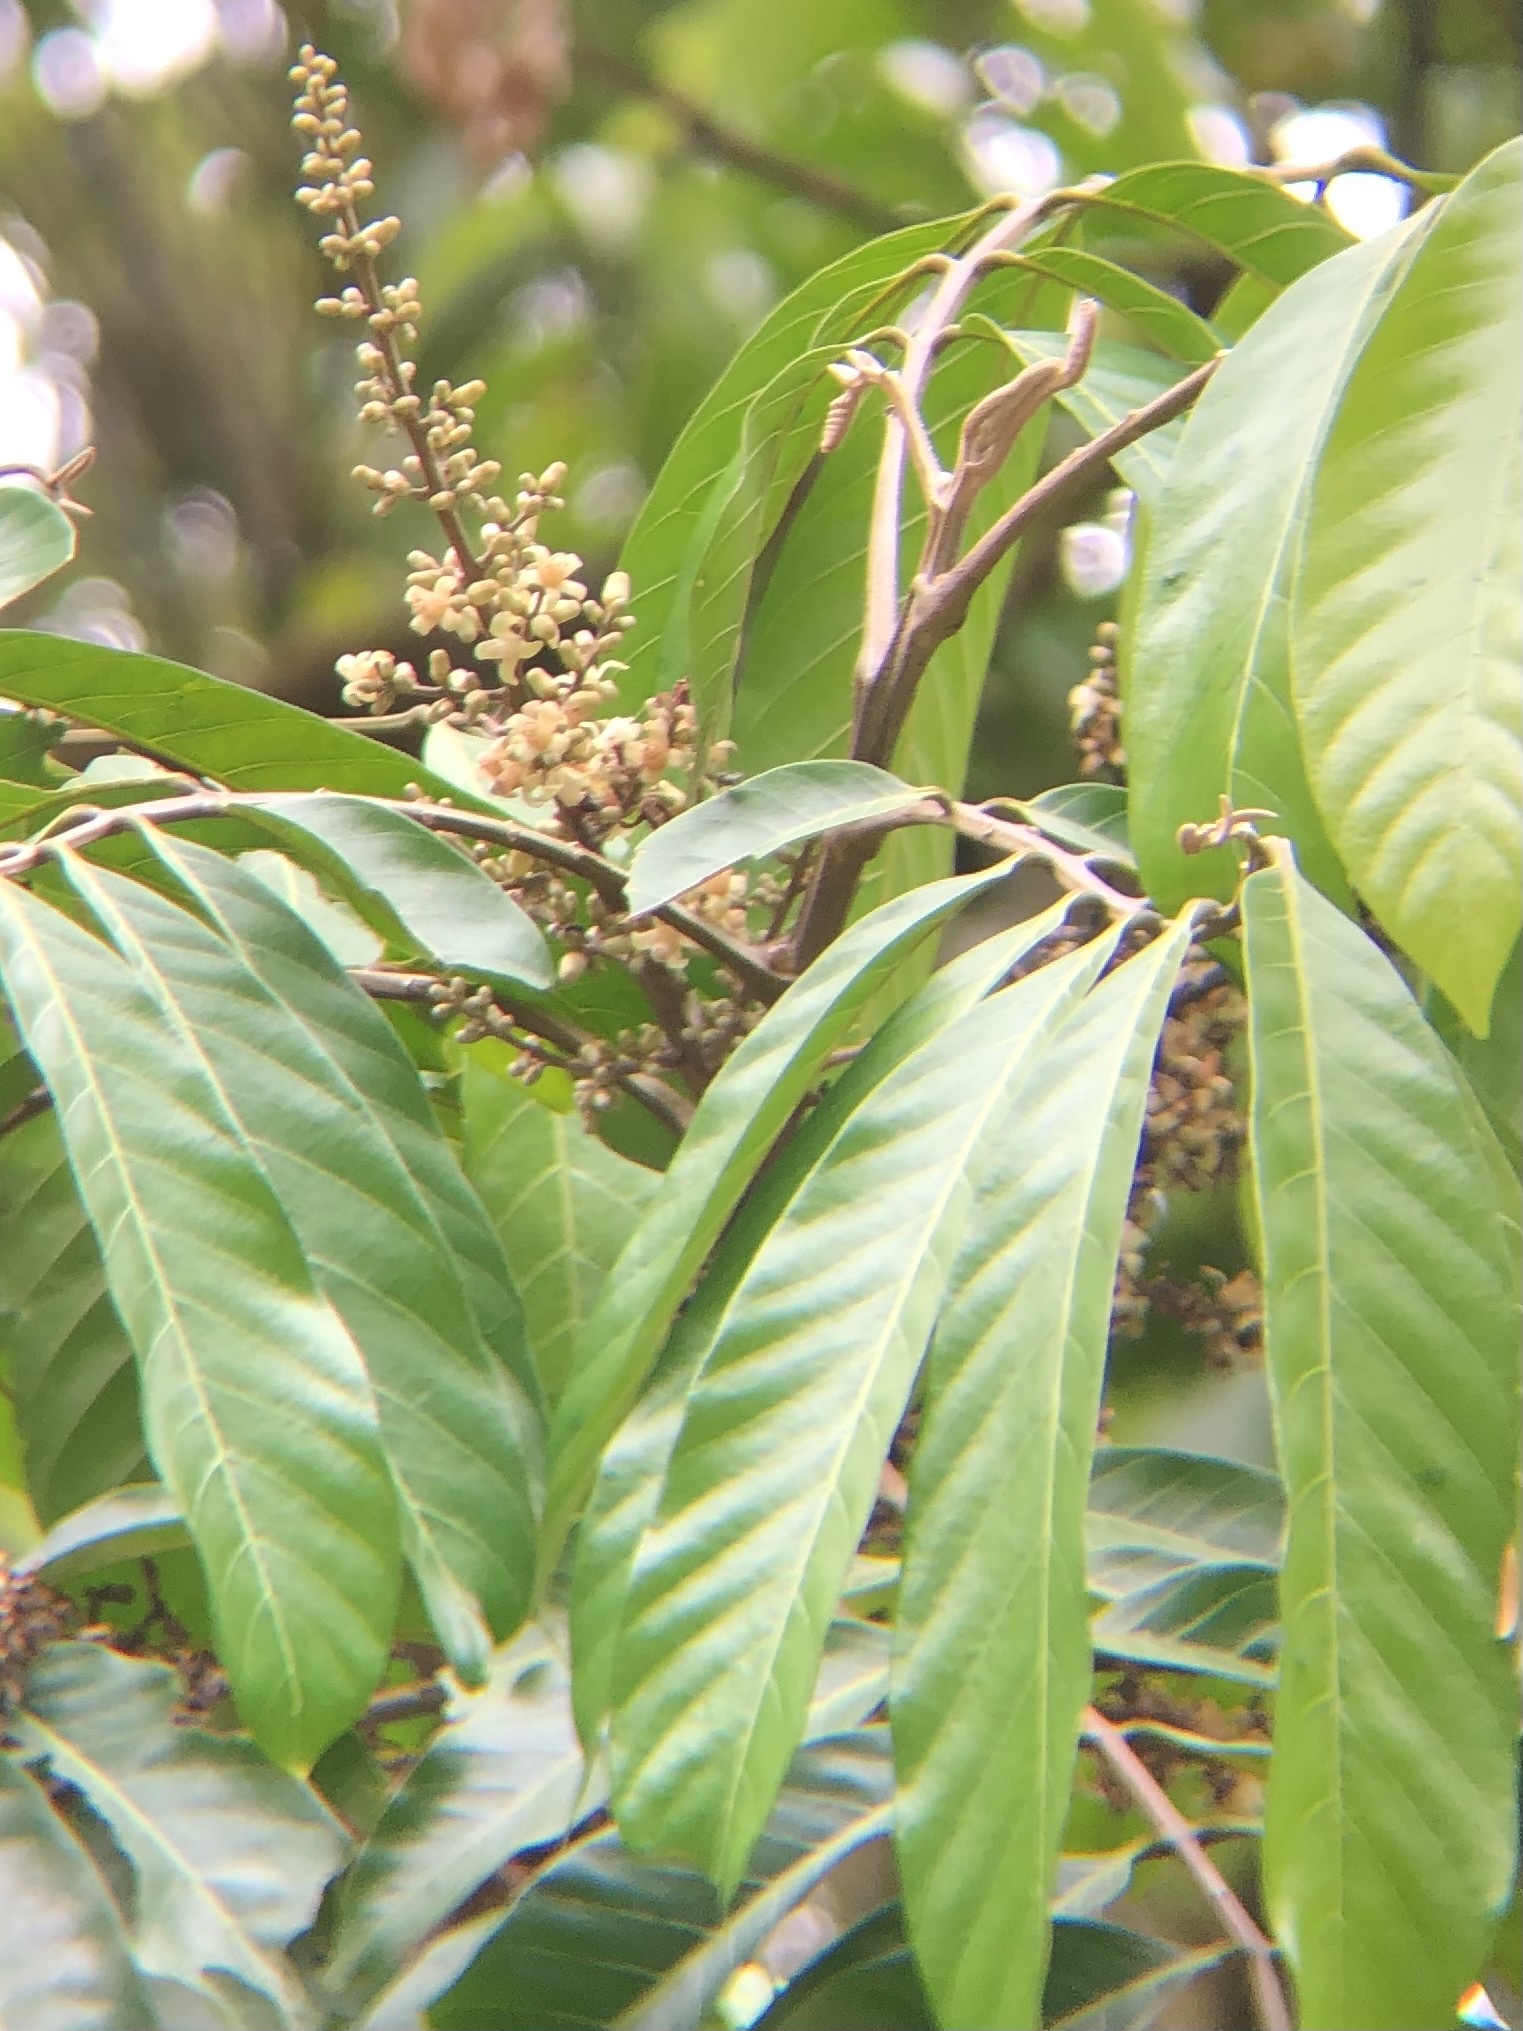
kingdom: Plantae
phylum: Tracheophyta
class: Magnoliopsida
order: Sapindales
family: Meliaceae
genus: Guarea
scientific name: Guarea kunthiana
